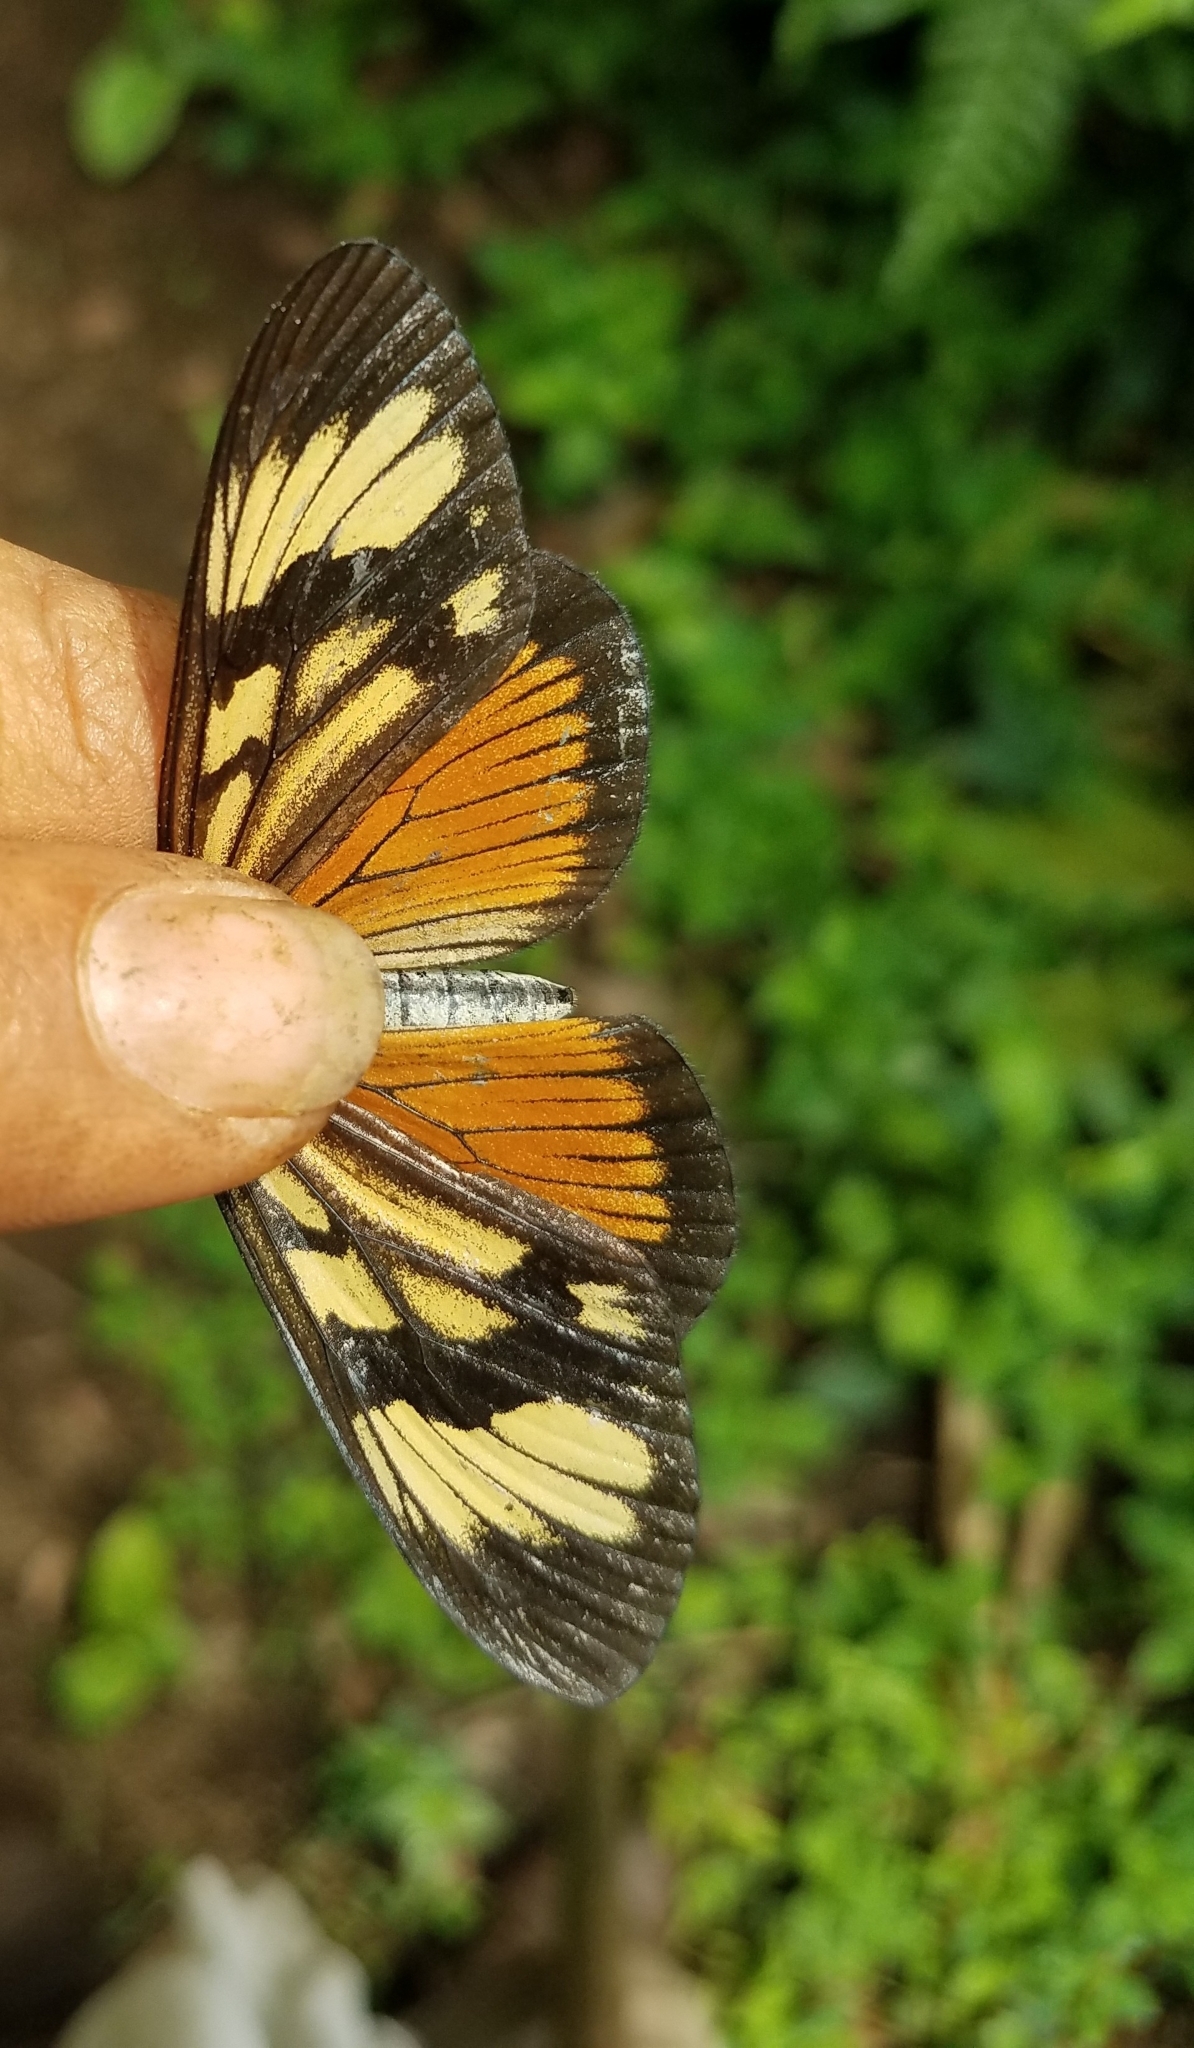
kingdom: Animalia
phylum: Arthropoda
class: Insecta
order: Lepidoptera
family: Nymphalidae
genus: Actinote
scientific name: Actinote anteas
